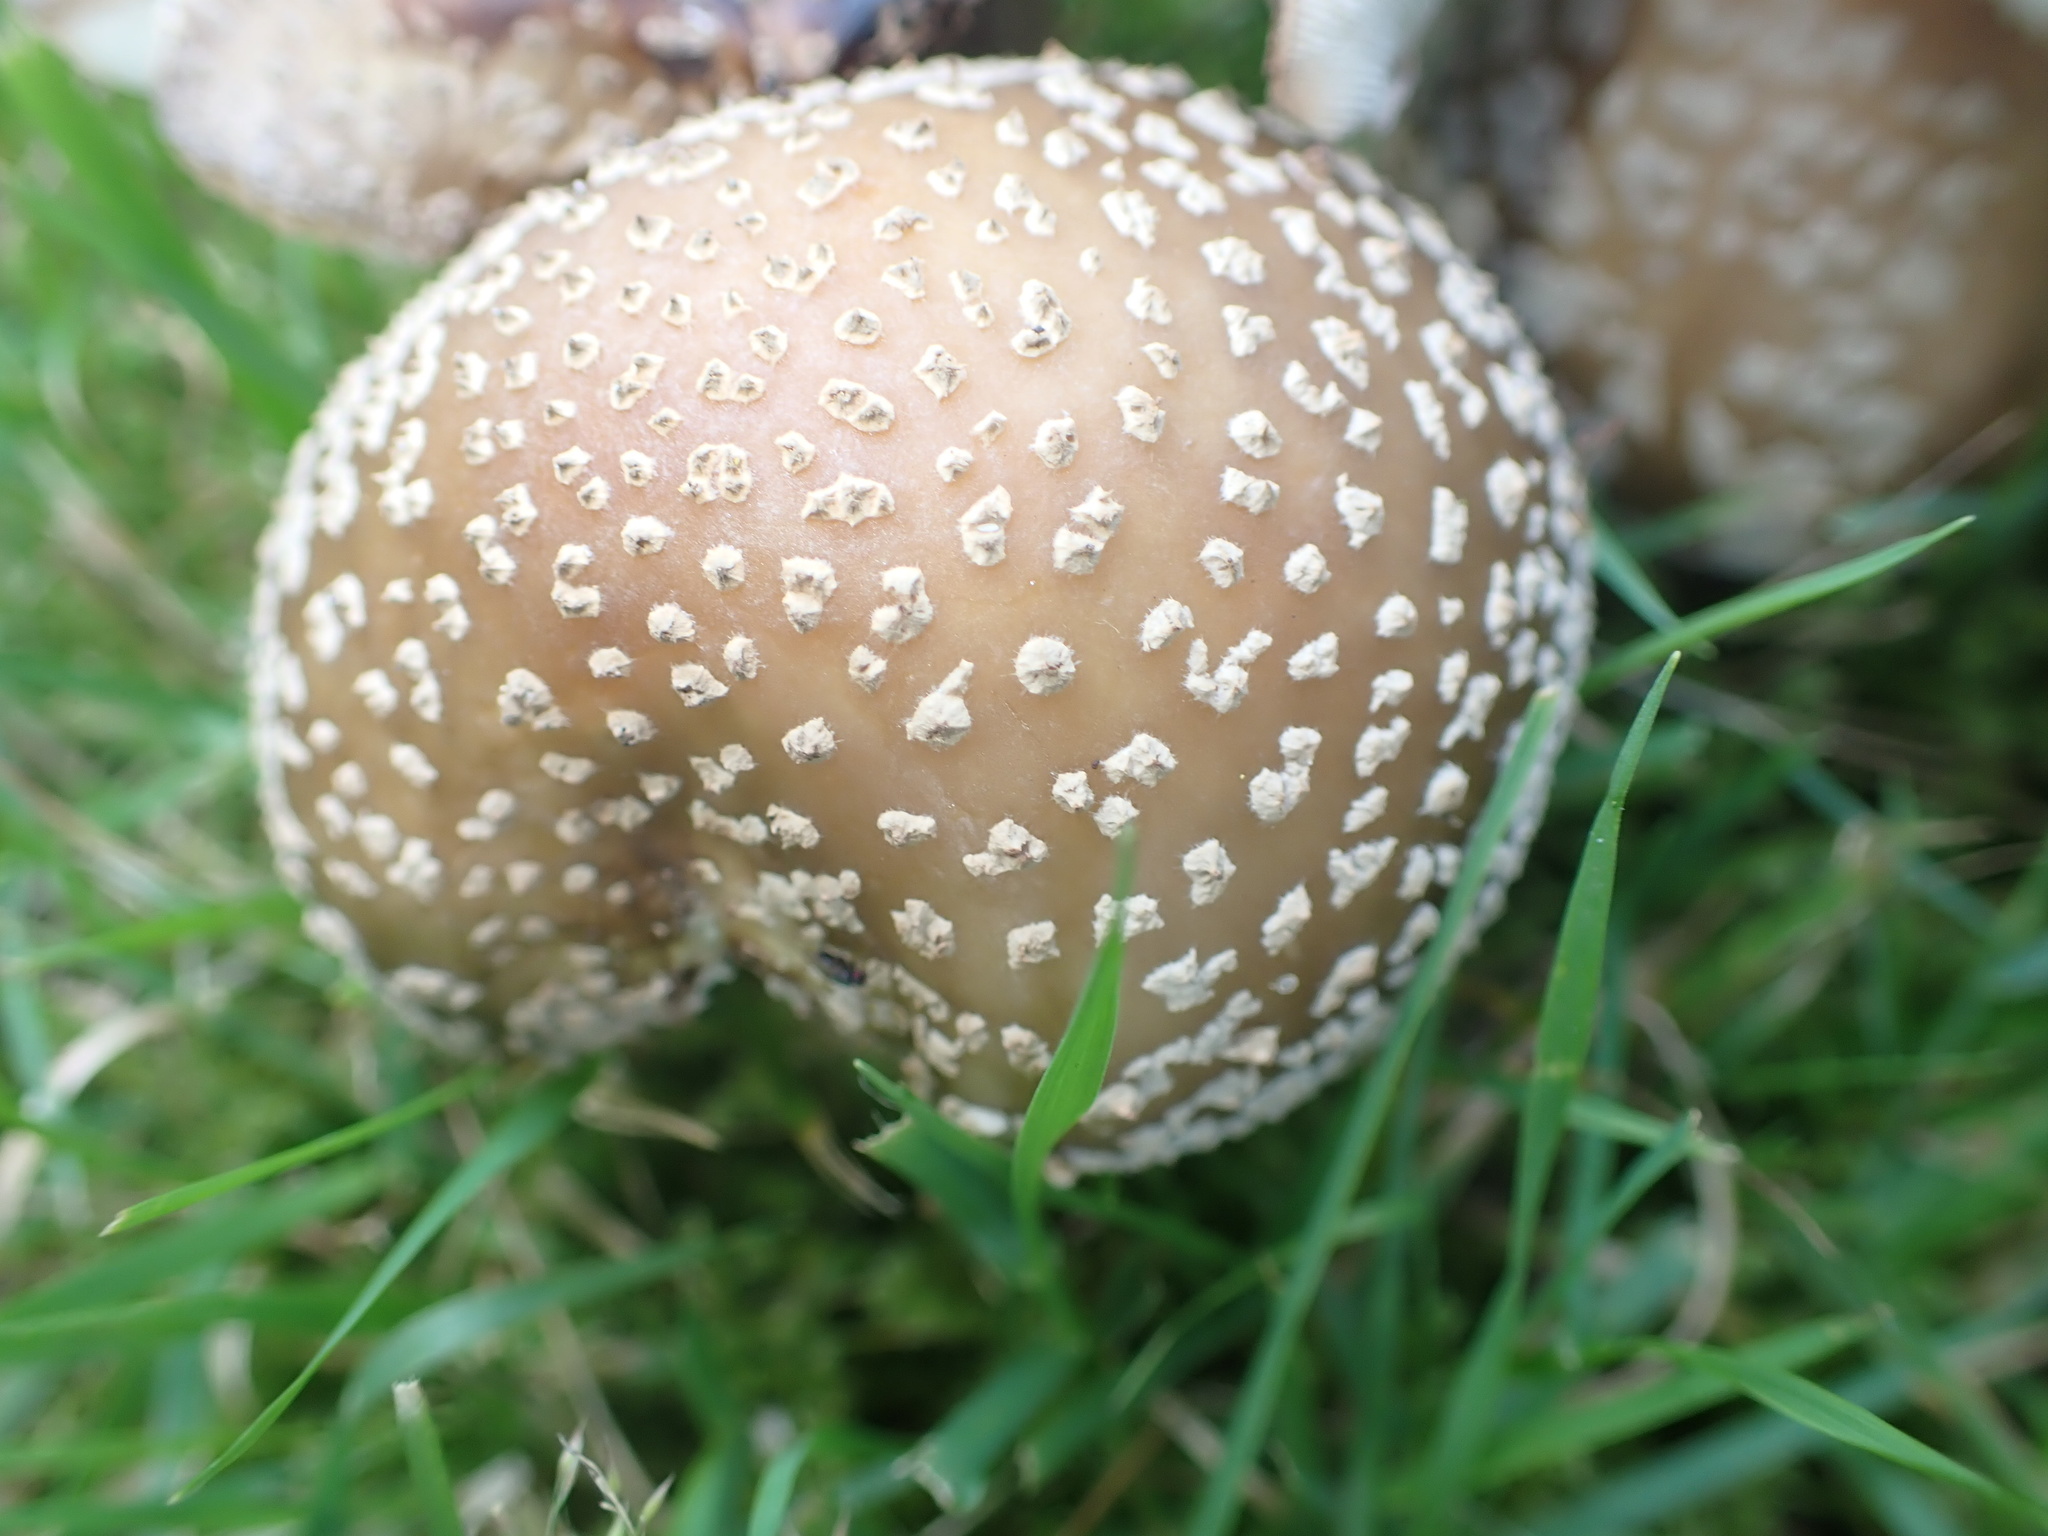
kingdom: Fungi
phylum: Basidiomycota
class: Agaricomycetes
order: Agaricales
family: Amanitaceae
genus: Amanita
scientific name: Amanita rubescens
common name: Blusher
